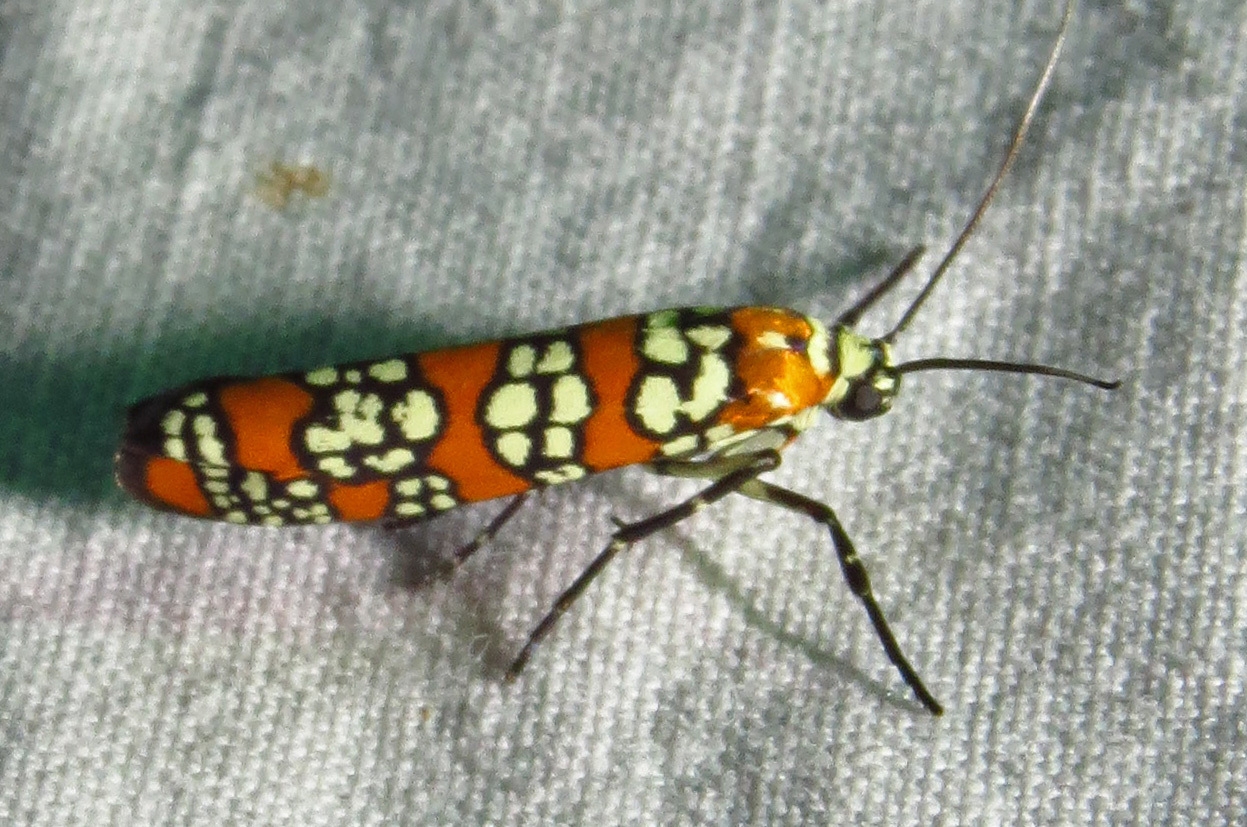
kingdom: Animalia
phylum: Arthropoda
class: Insecta
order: Lepidoptera
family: Attevidae
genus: Atteva
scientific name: Atteva punctella
